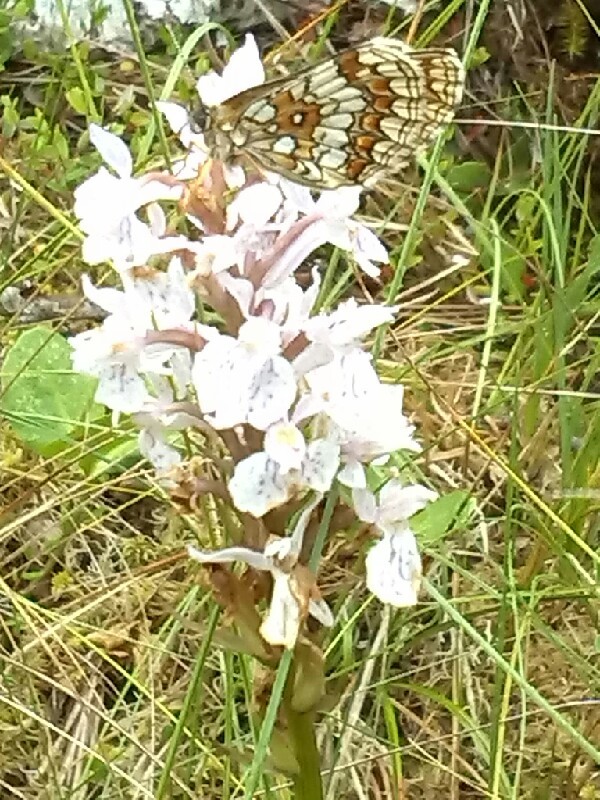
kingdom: Animalia
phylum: Arthropoda
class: Insecta
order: Lepidoptera
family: Nymphalidae
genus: Melitaea
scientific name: Melitaea athalia
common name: Heath fritillary
